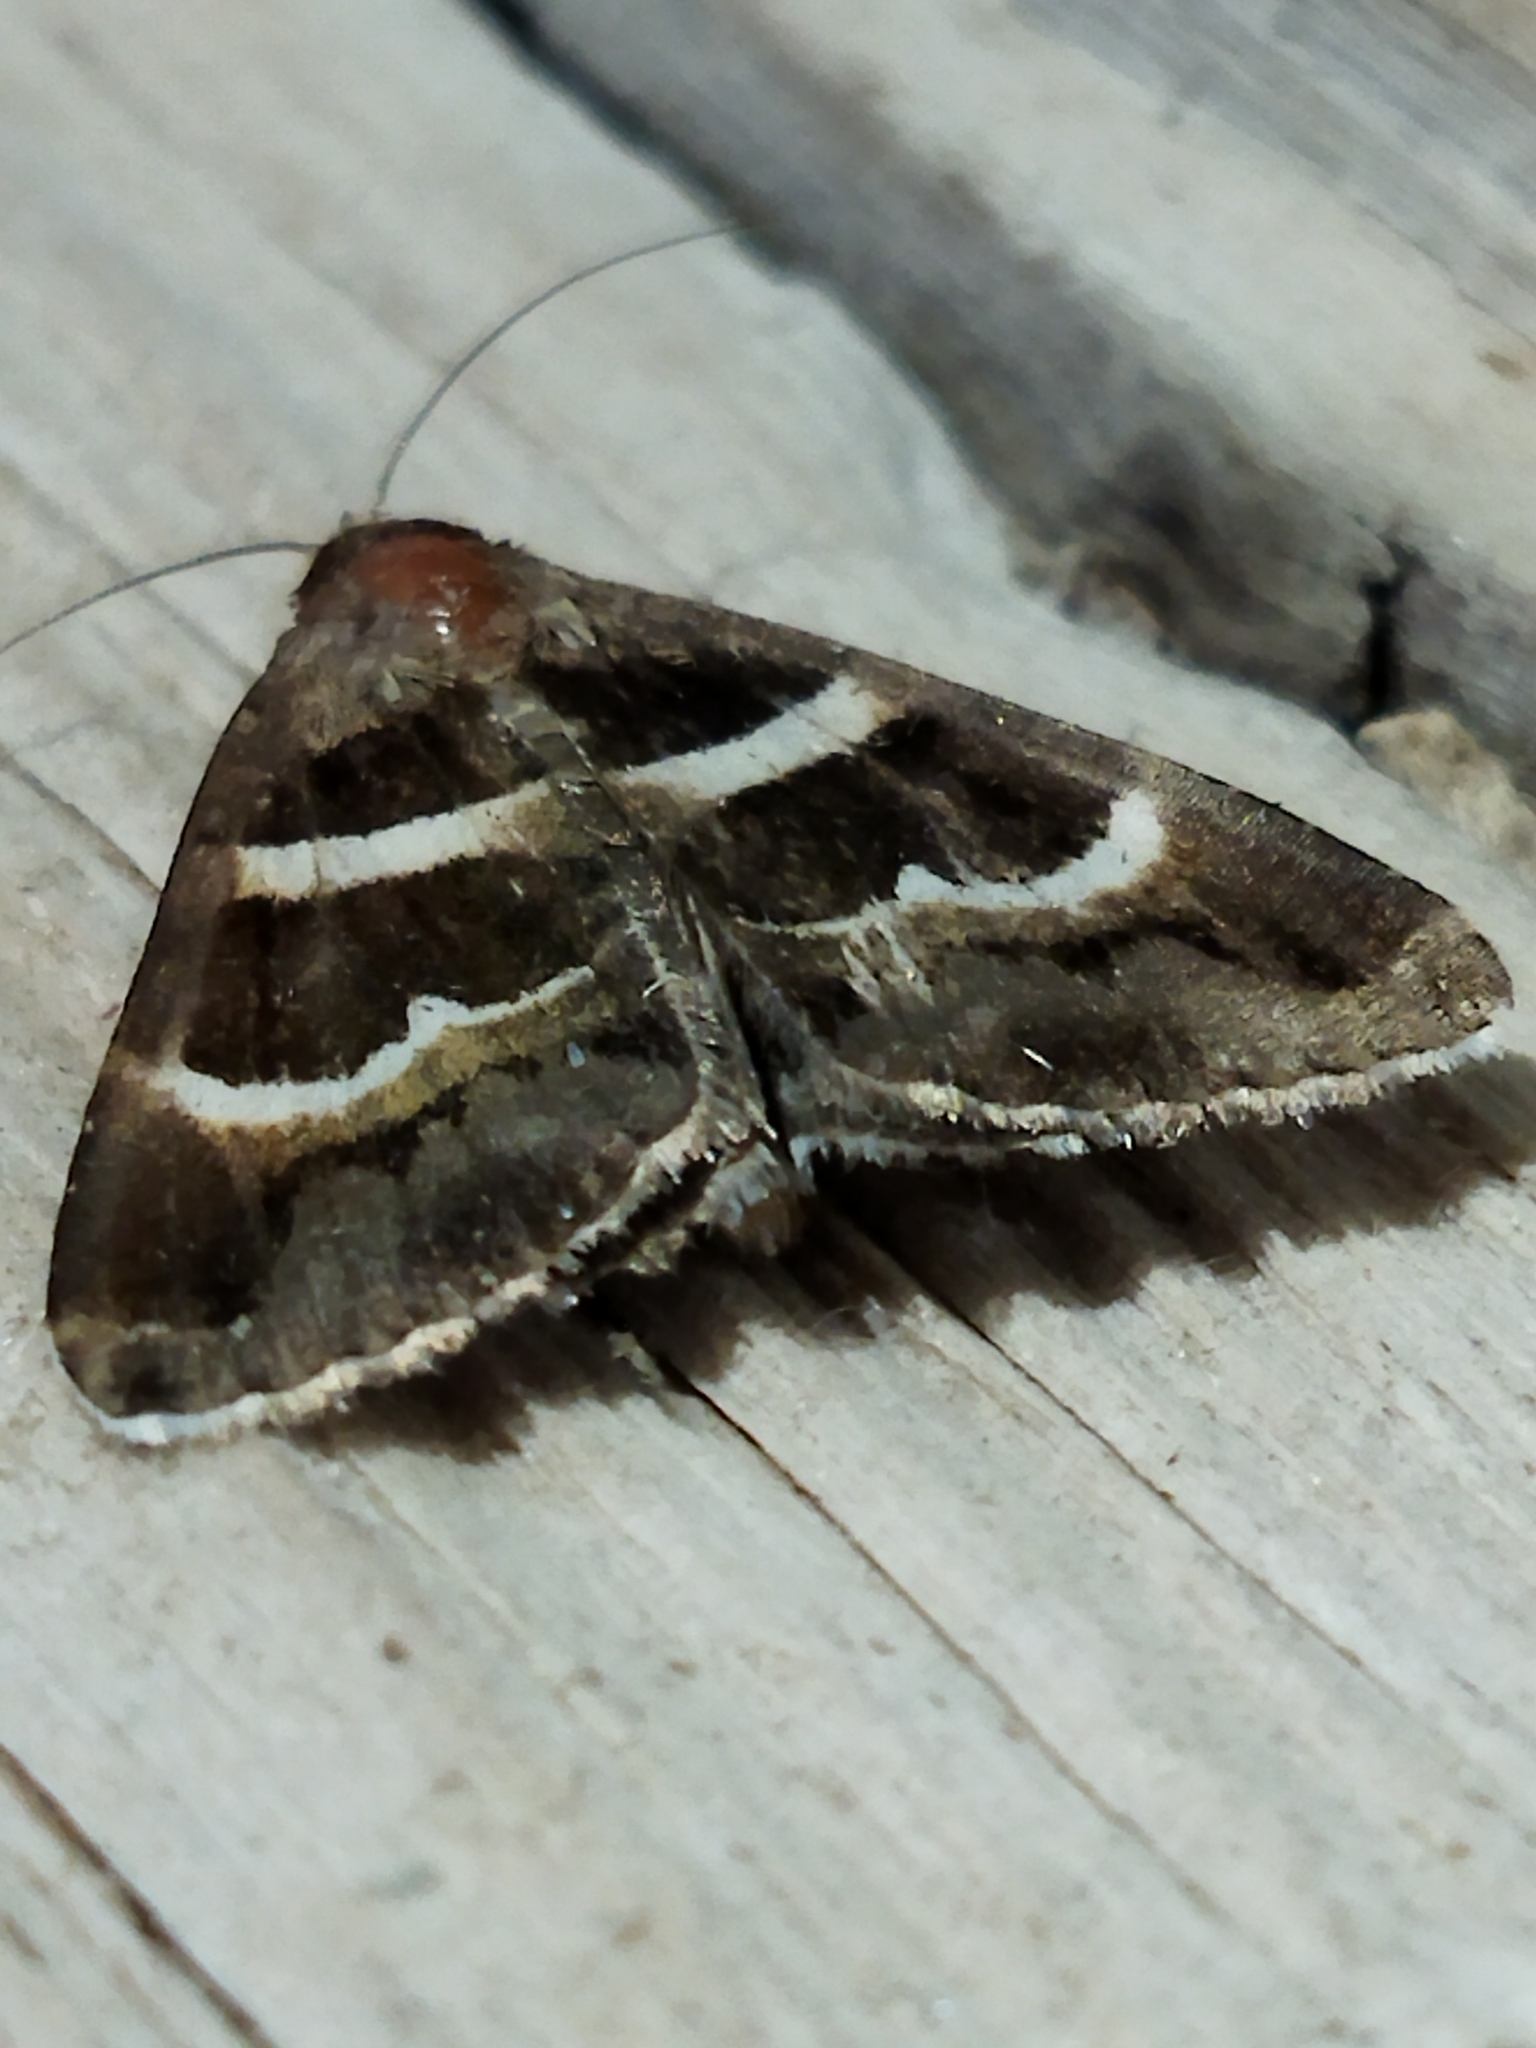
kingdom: Animalia
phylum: Arthropoda
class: Insecta
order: Lepidoptera
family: Erebidae
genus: Grammodes
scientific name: Grammodes stolida
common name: Geometrician
